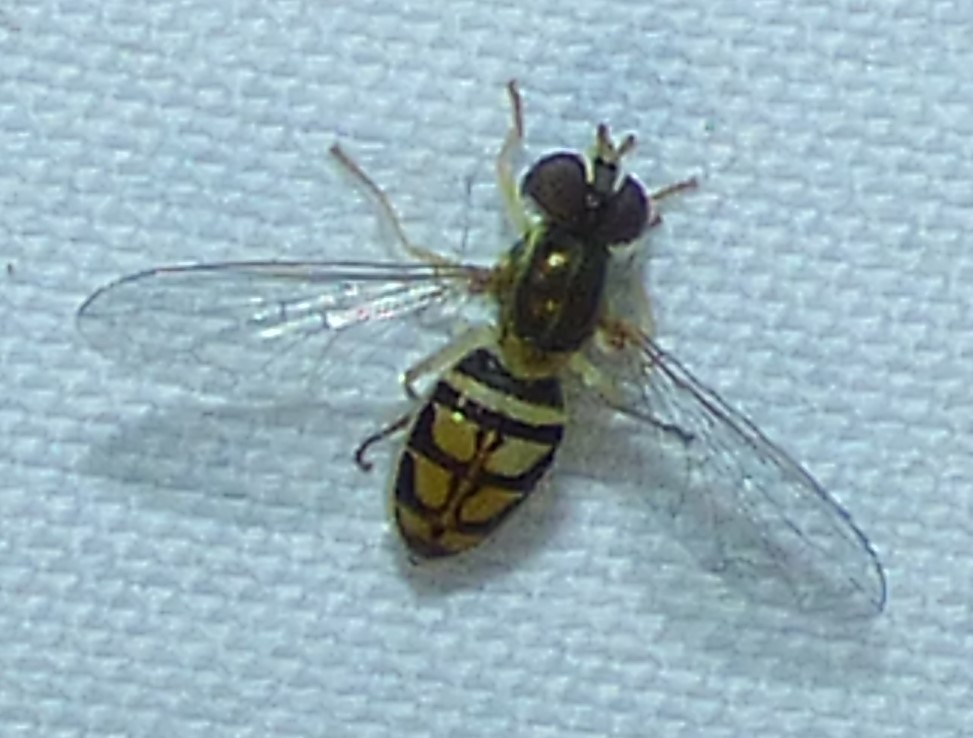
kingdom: Animalia
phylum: Arthropoda
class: Insecta
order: Diptera
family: Syrphidae
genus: Toxomerus
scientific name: Toxomerus marginatus
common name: Syrphid fly
